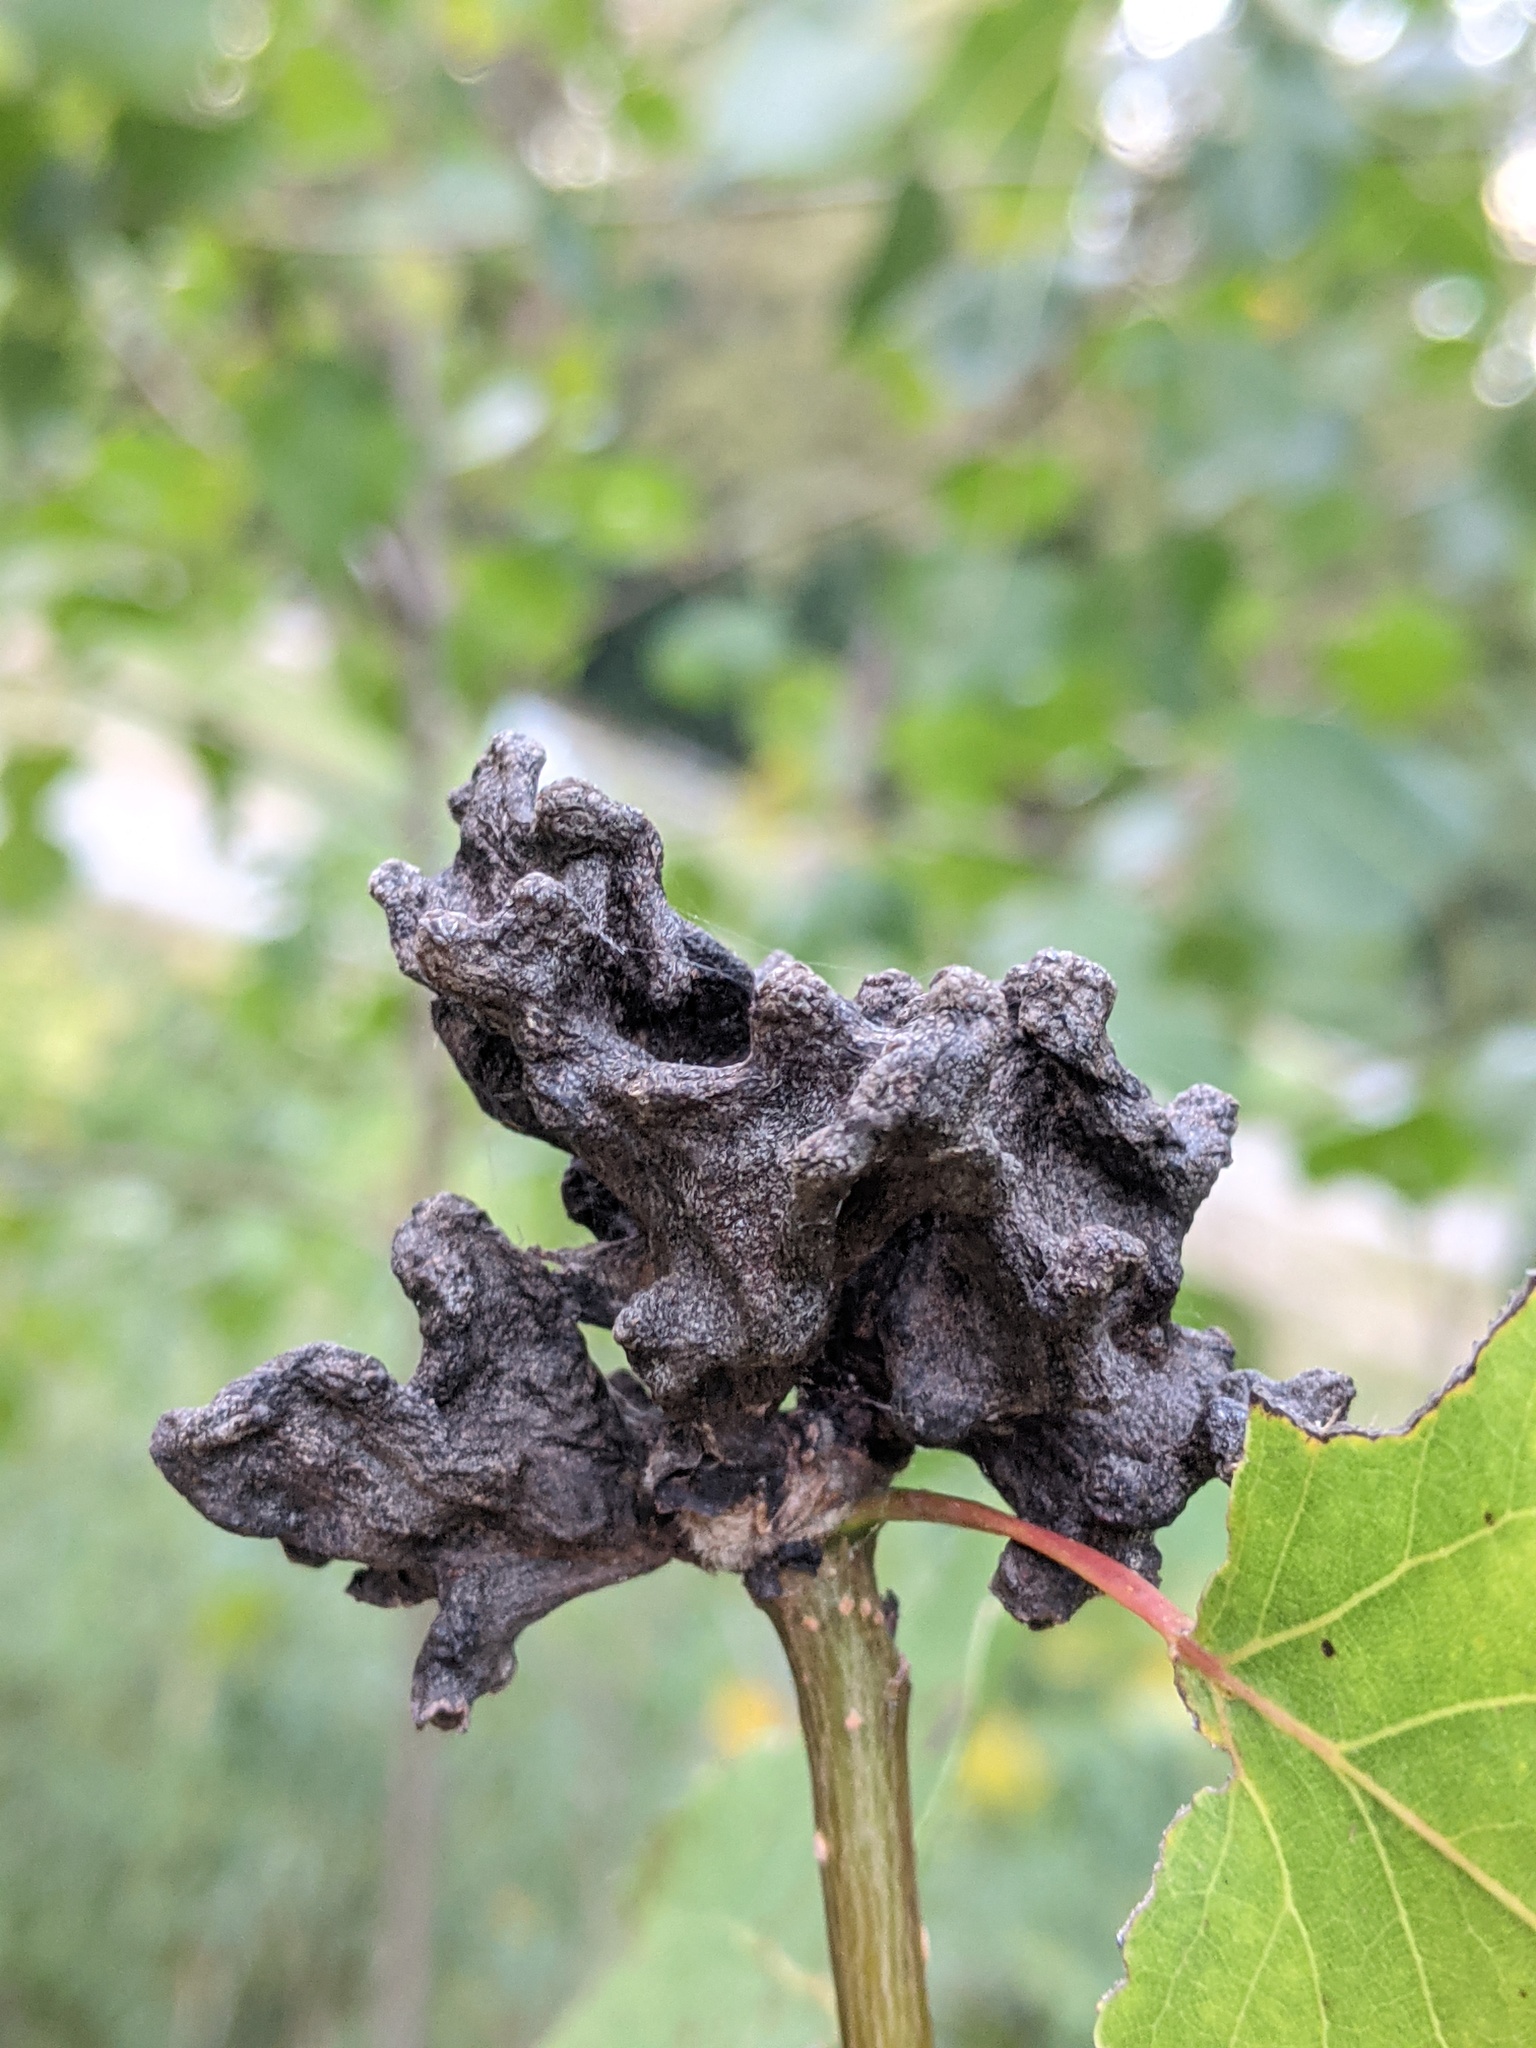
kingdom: Animalia
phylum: Arthropoda
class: Insecta
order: Hemiptera
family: Aphididae
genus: Mordwilkoja
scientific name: Mordwilkoja vagabunda
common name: Poplar vagabond aphid
